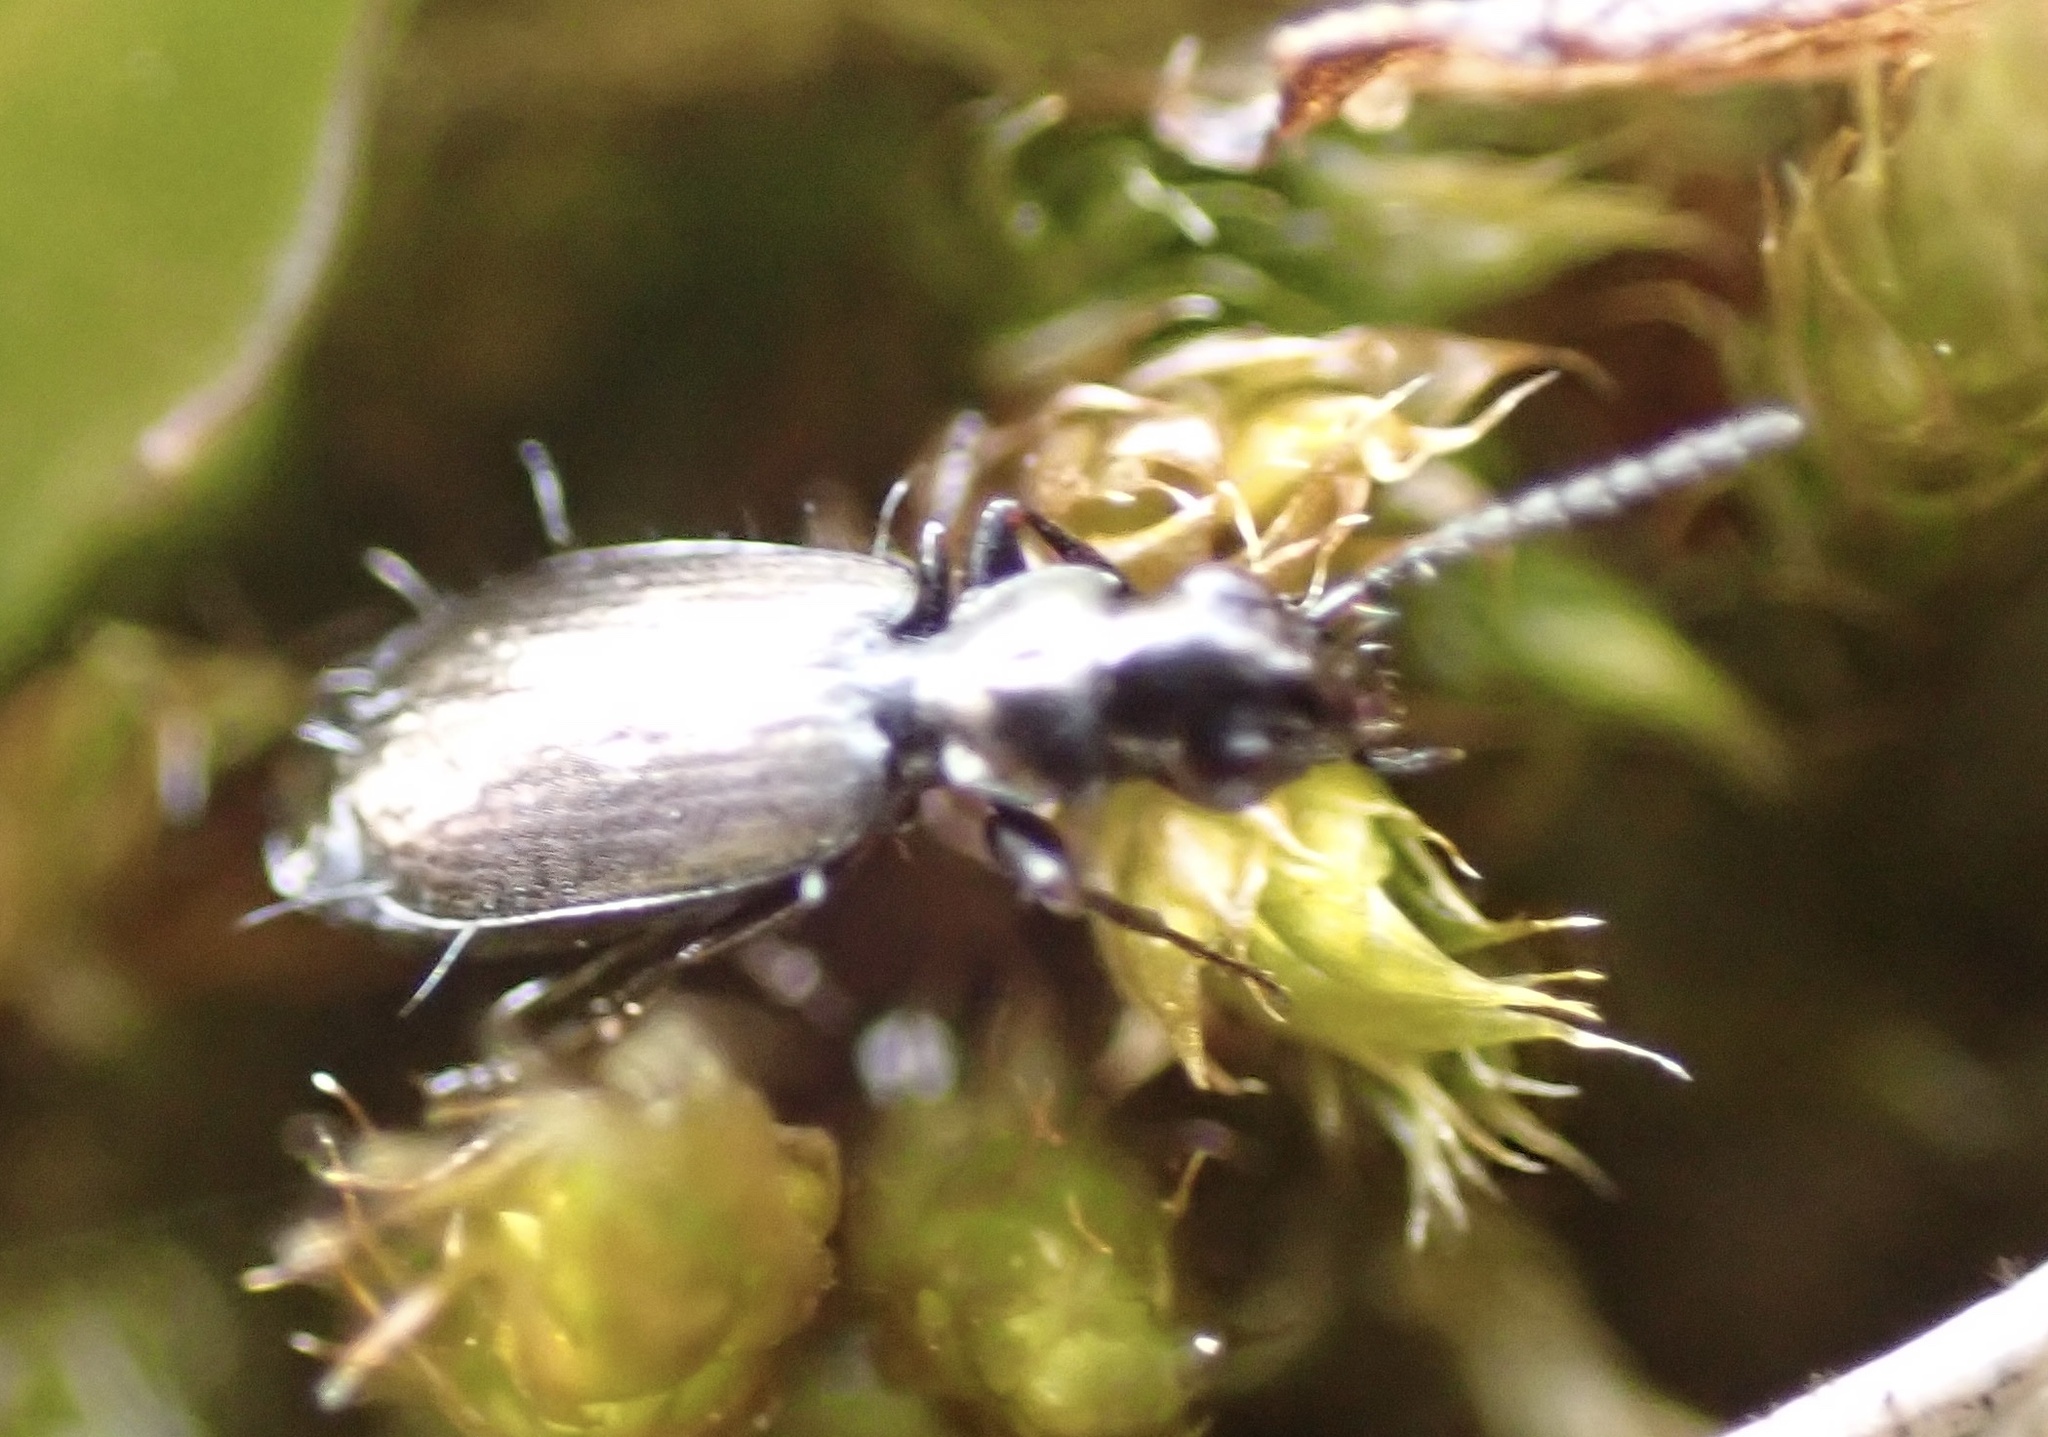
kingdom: Animalia
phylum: Arthropoda
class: Insecta
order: Coleoptera
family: Carabidae
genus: Syntomus
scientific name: Syntomus foveatus
